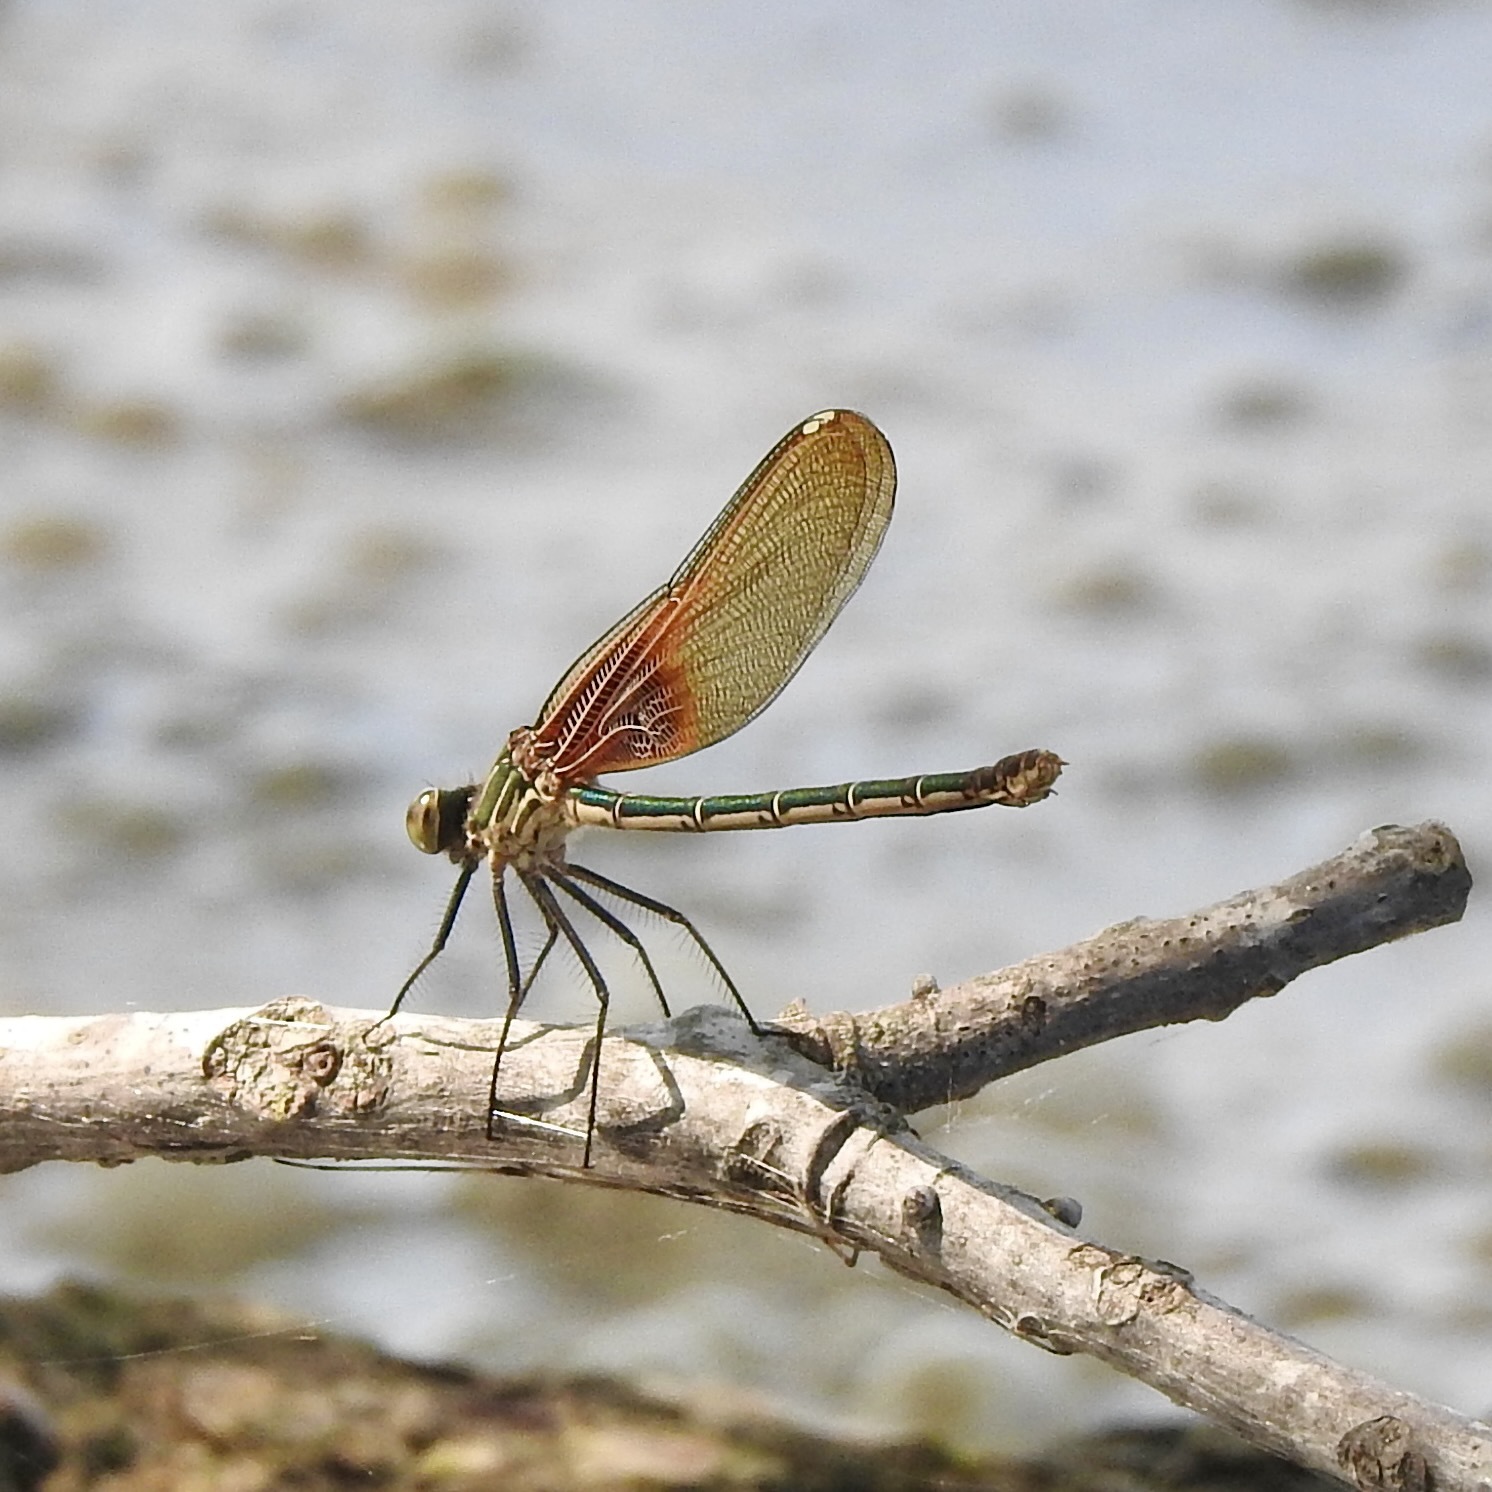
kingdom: Animalia
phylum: Arthropoda
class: Insecta
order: Odonata
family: Calopterygidae
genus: Hetaerina
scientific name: Hetaerina americana
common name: American rubyspot
